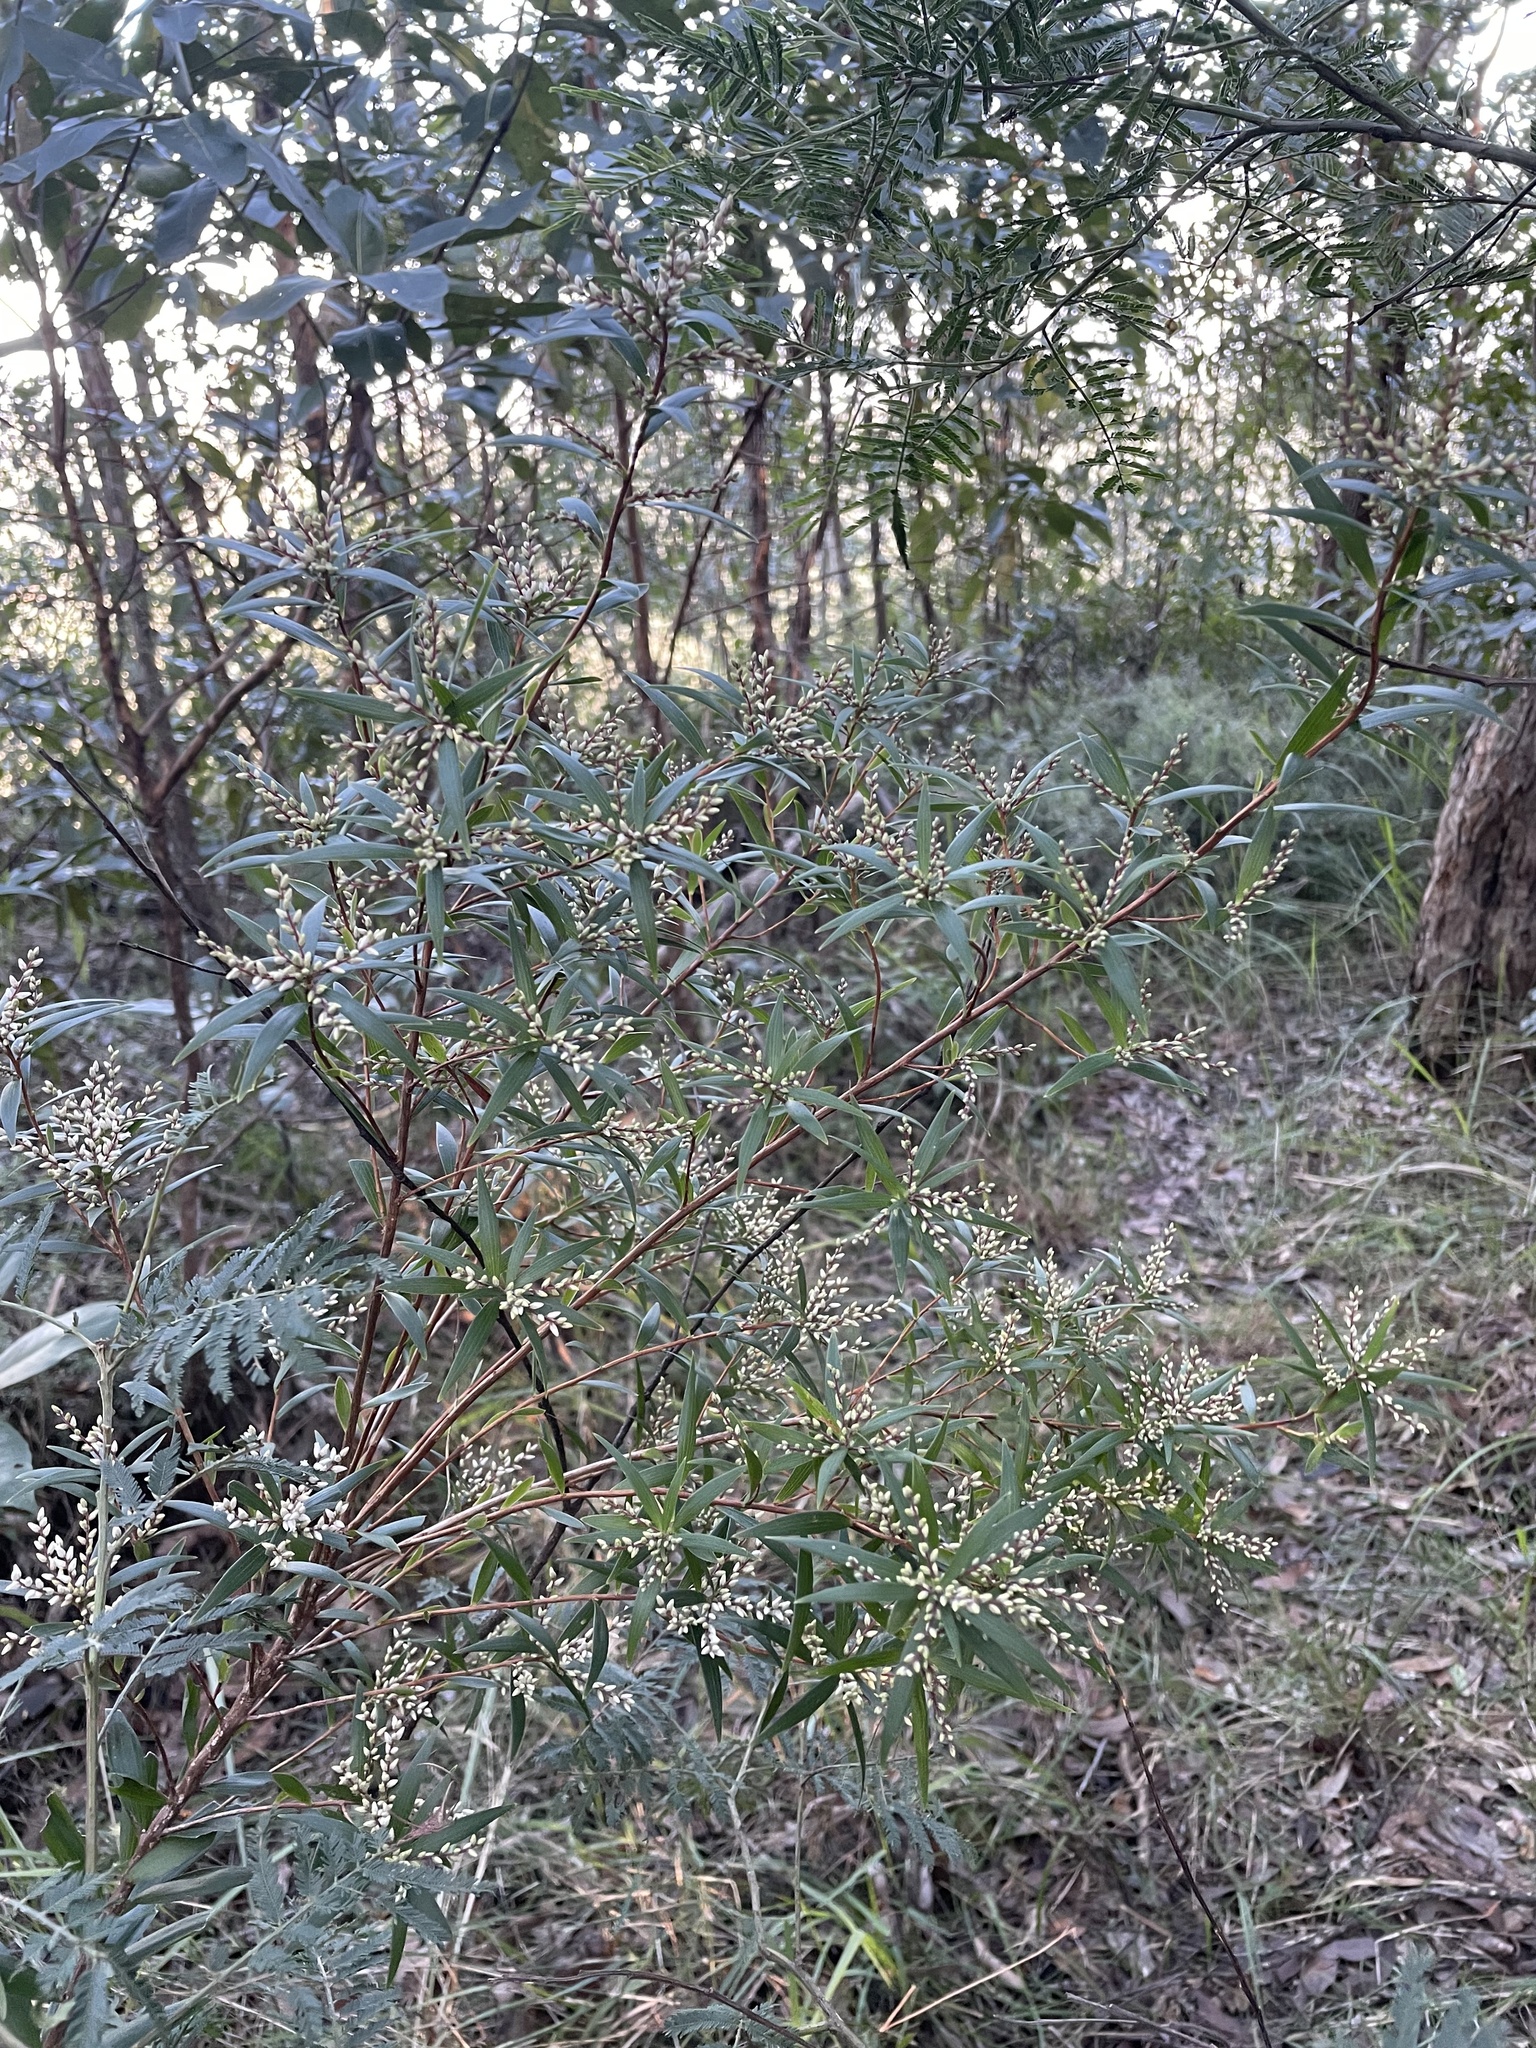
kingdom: Plantae
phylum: Tracheophyta
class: Magnoliopsida
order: Ericales
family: Ericaceae
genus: Leucopogon
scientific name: Leucopogon lanceolatus
